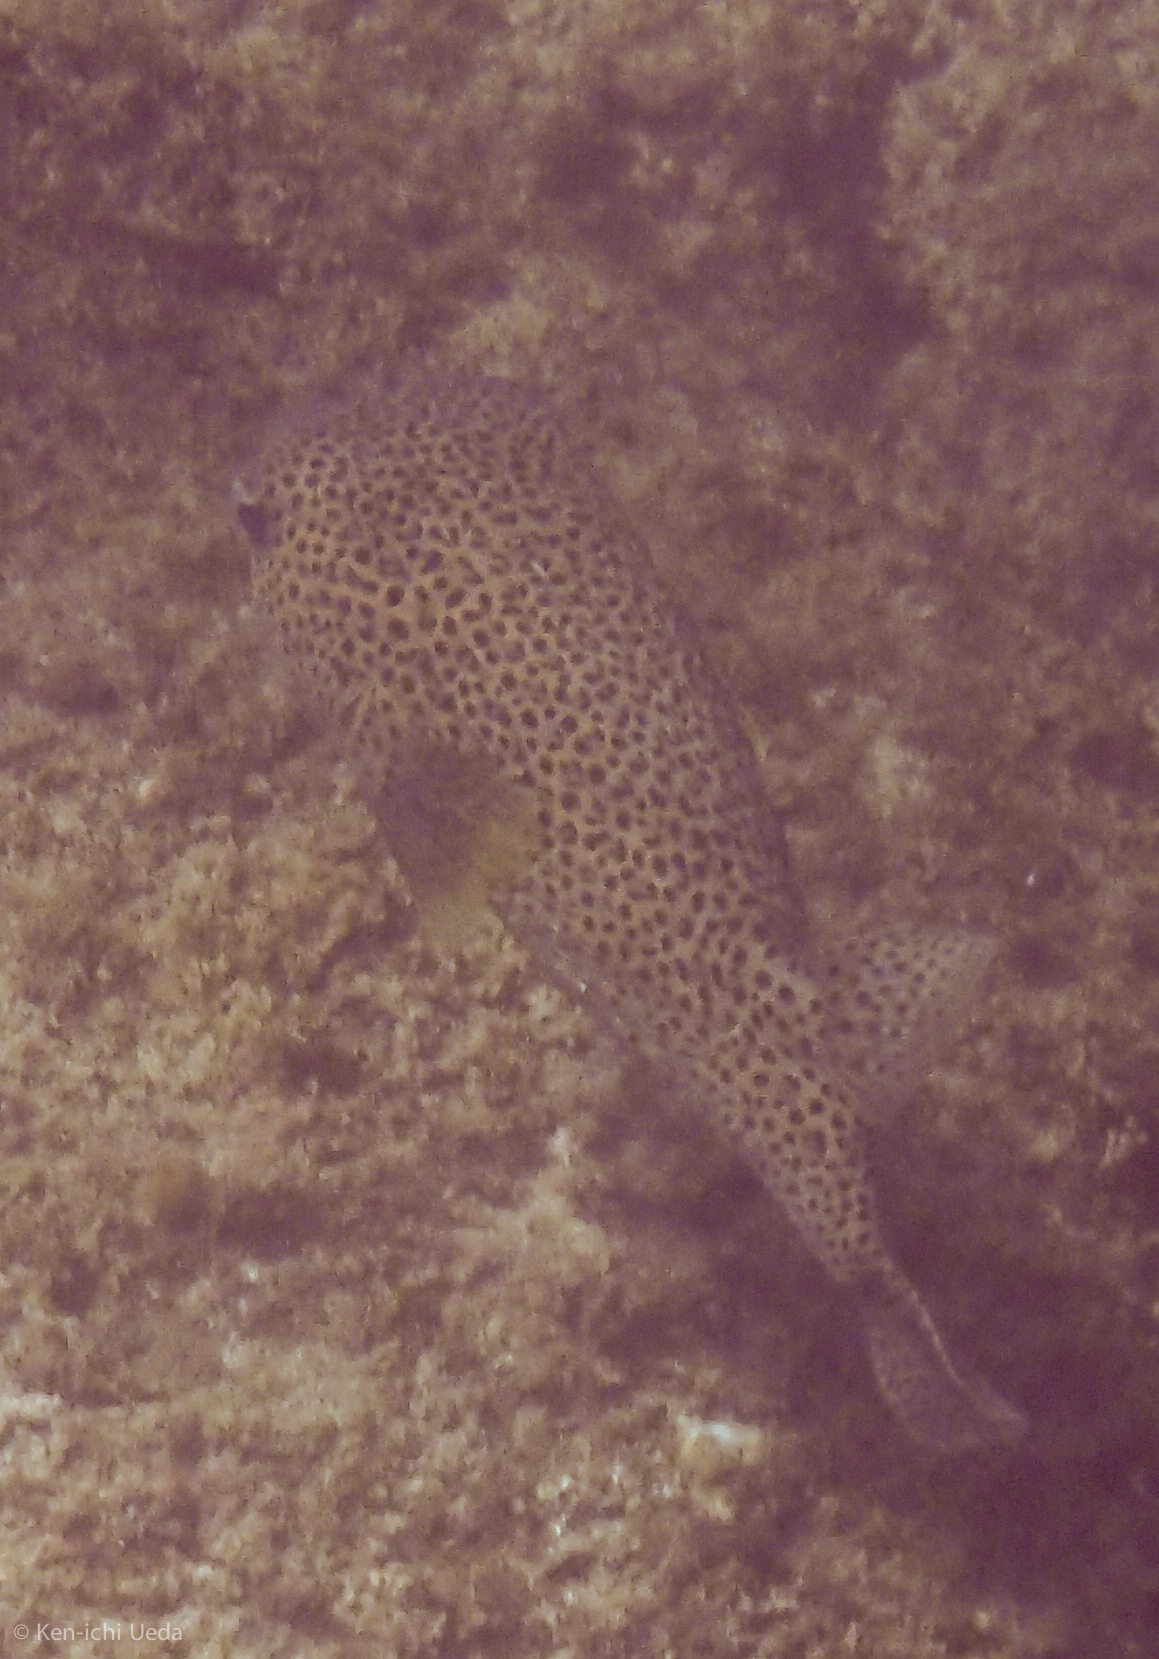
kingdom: Animalia
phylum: Chordata
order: Tetraodontiformes
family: Diodontidae
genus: Diodon
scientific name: Diodon hystrix
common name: Giant porcupinefish
